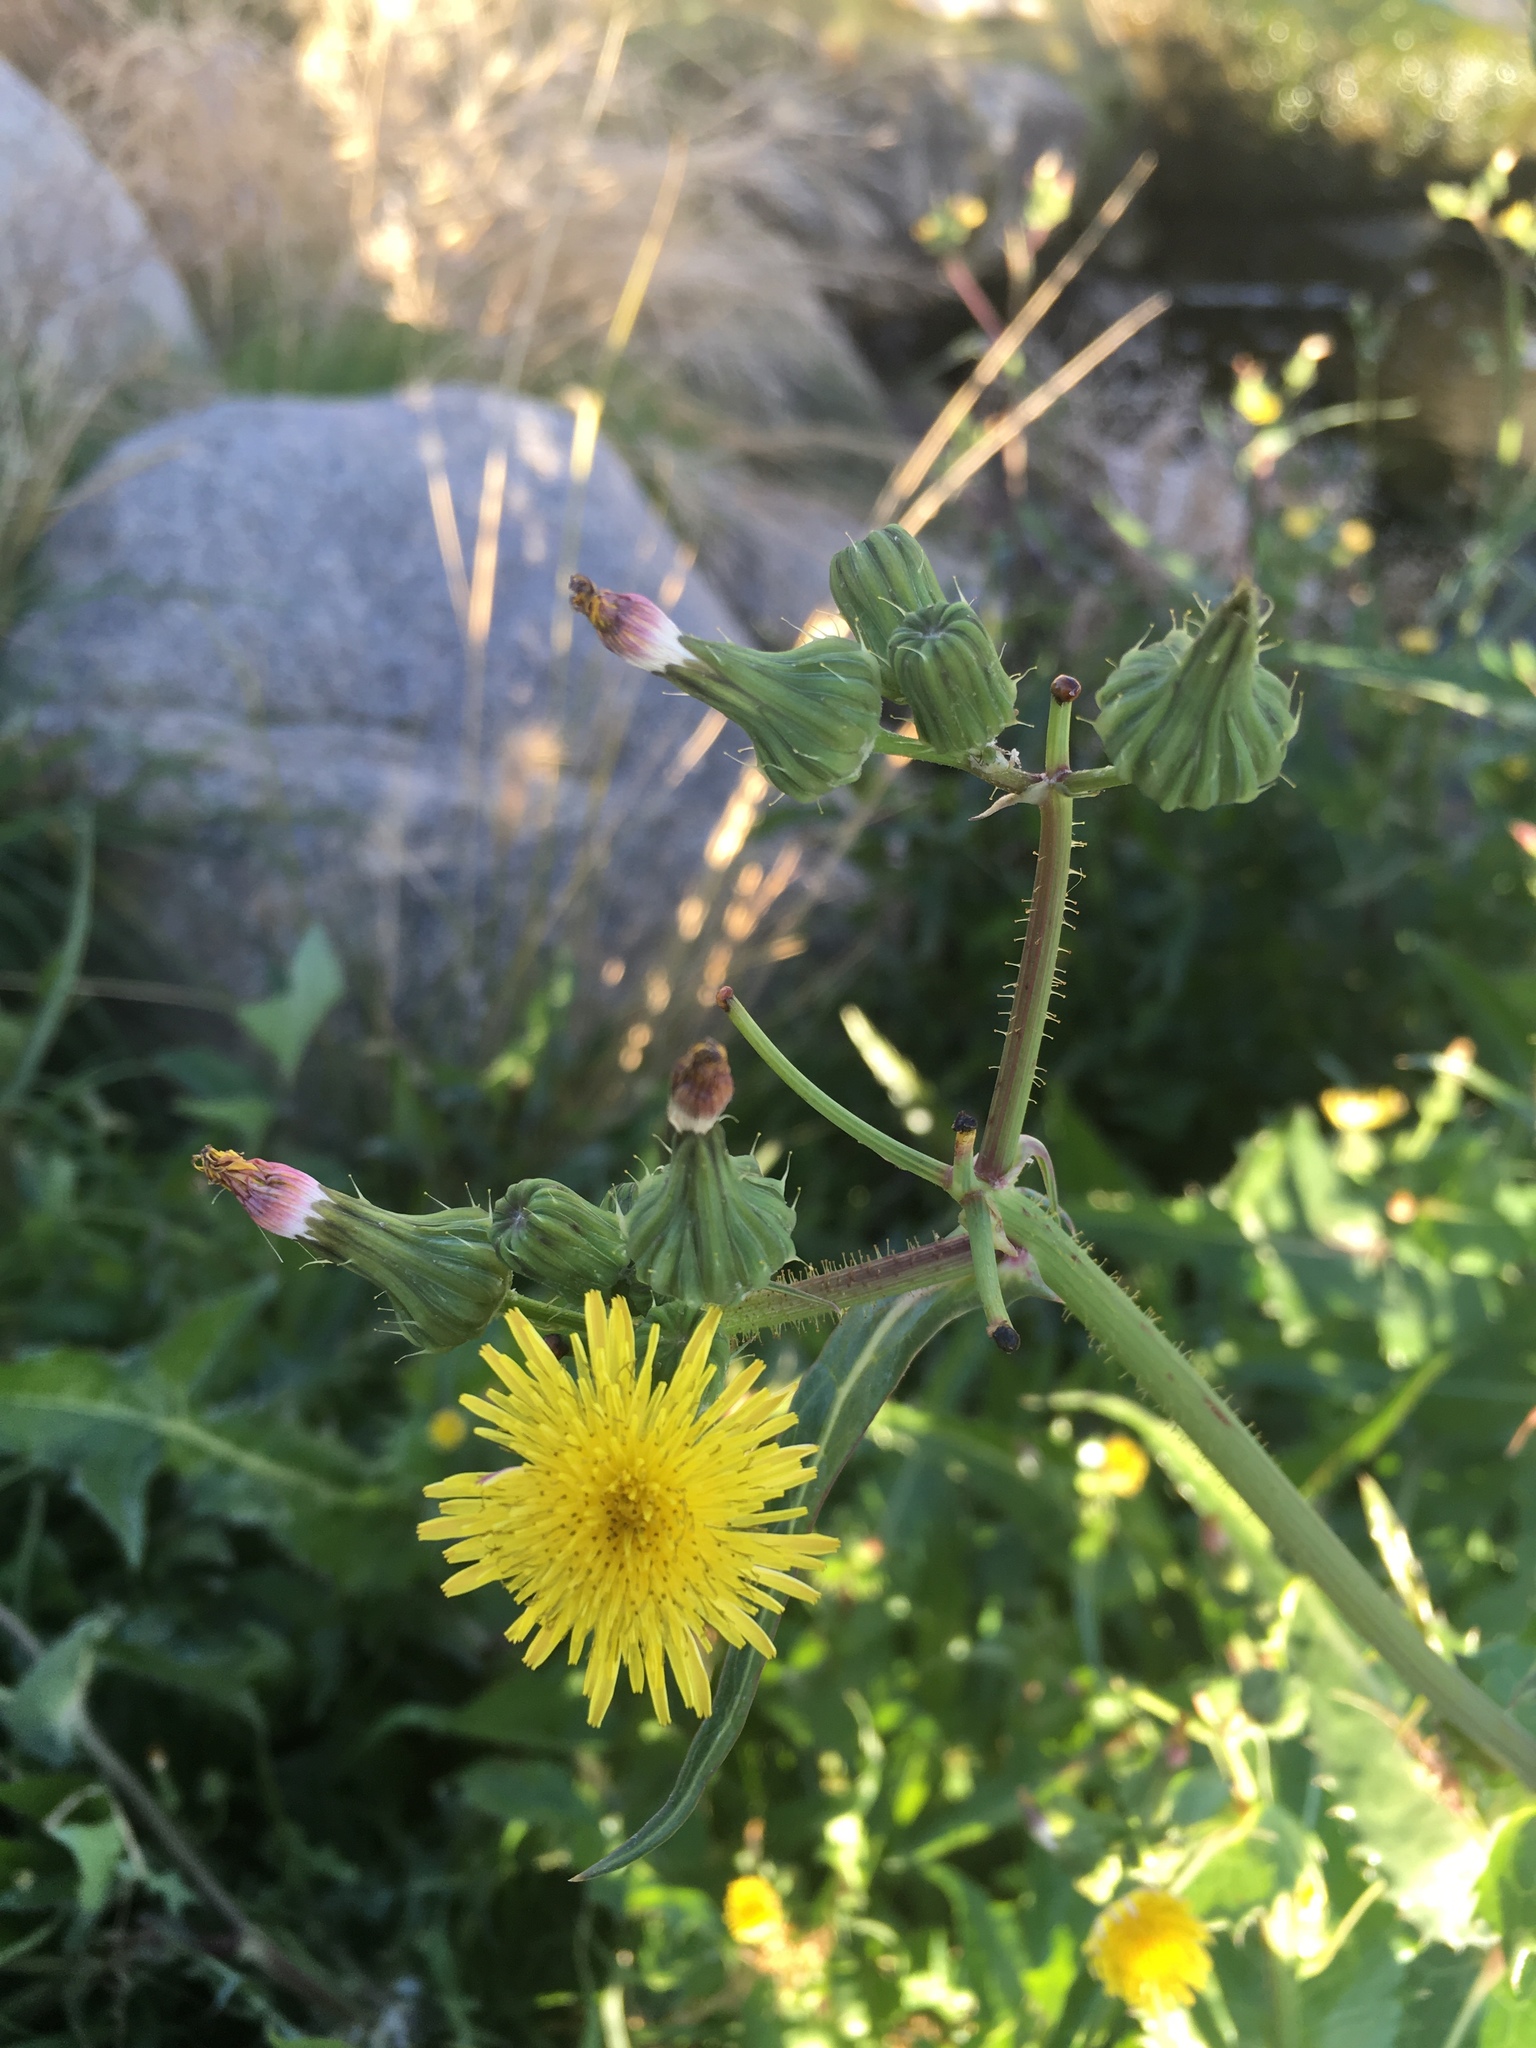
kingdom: Plantae
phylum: Tracheophyta
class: Magnoliopsida
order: Asterales
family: Asteraceae
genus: Sonchus
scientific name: Sonchus oleraceus
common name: Common sowthistle
